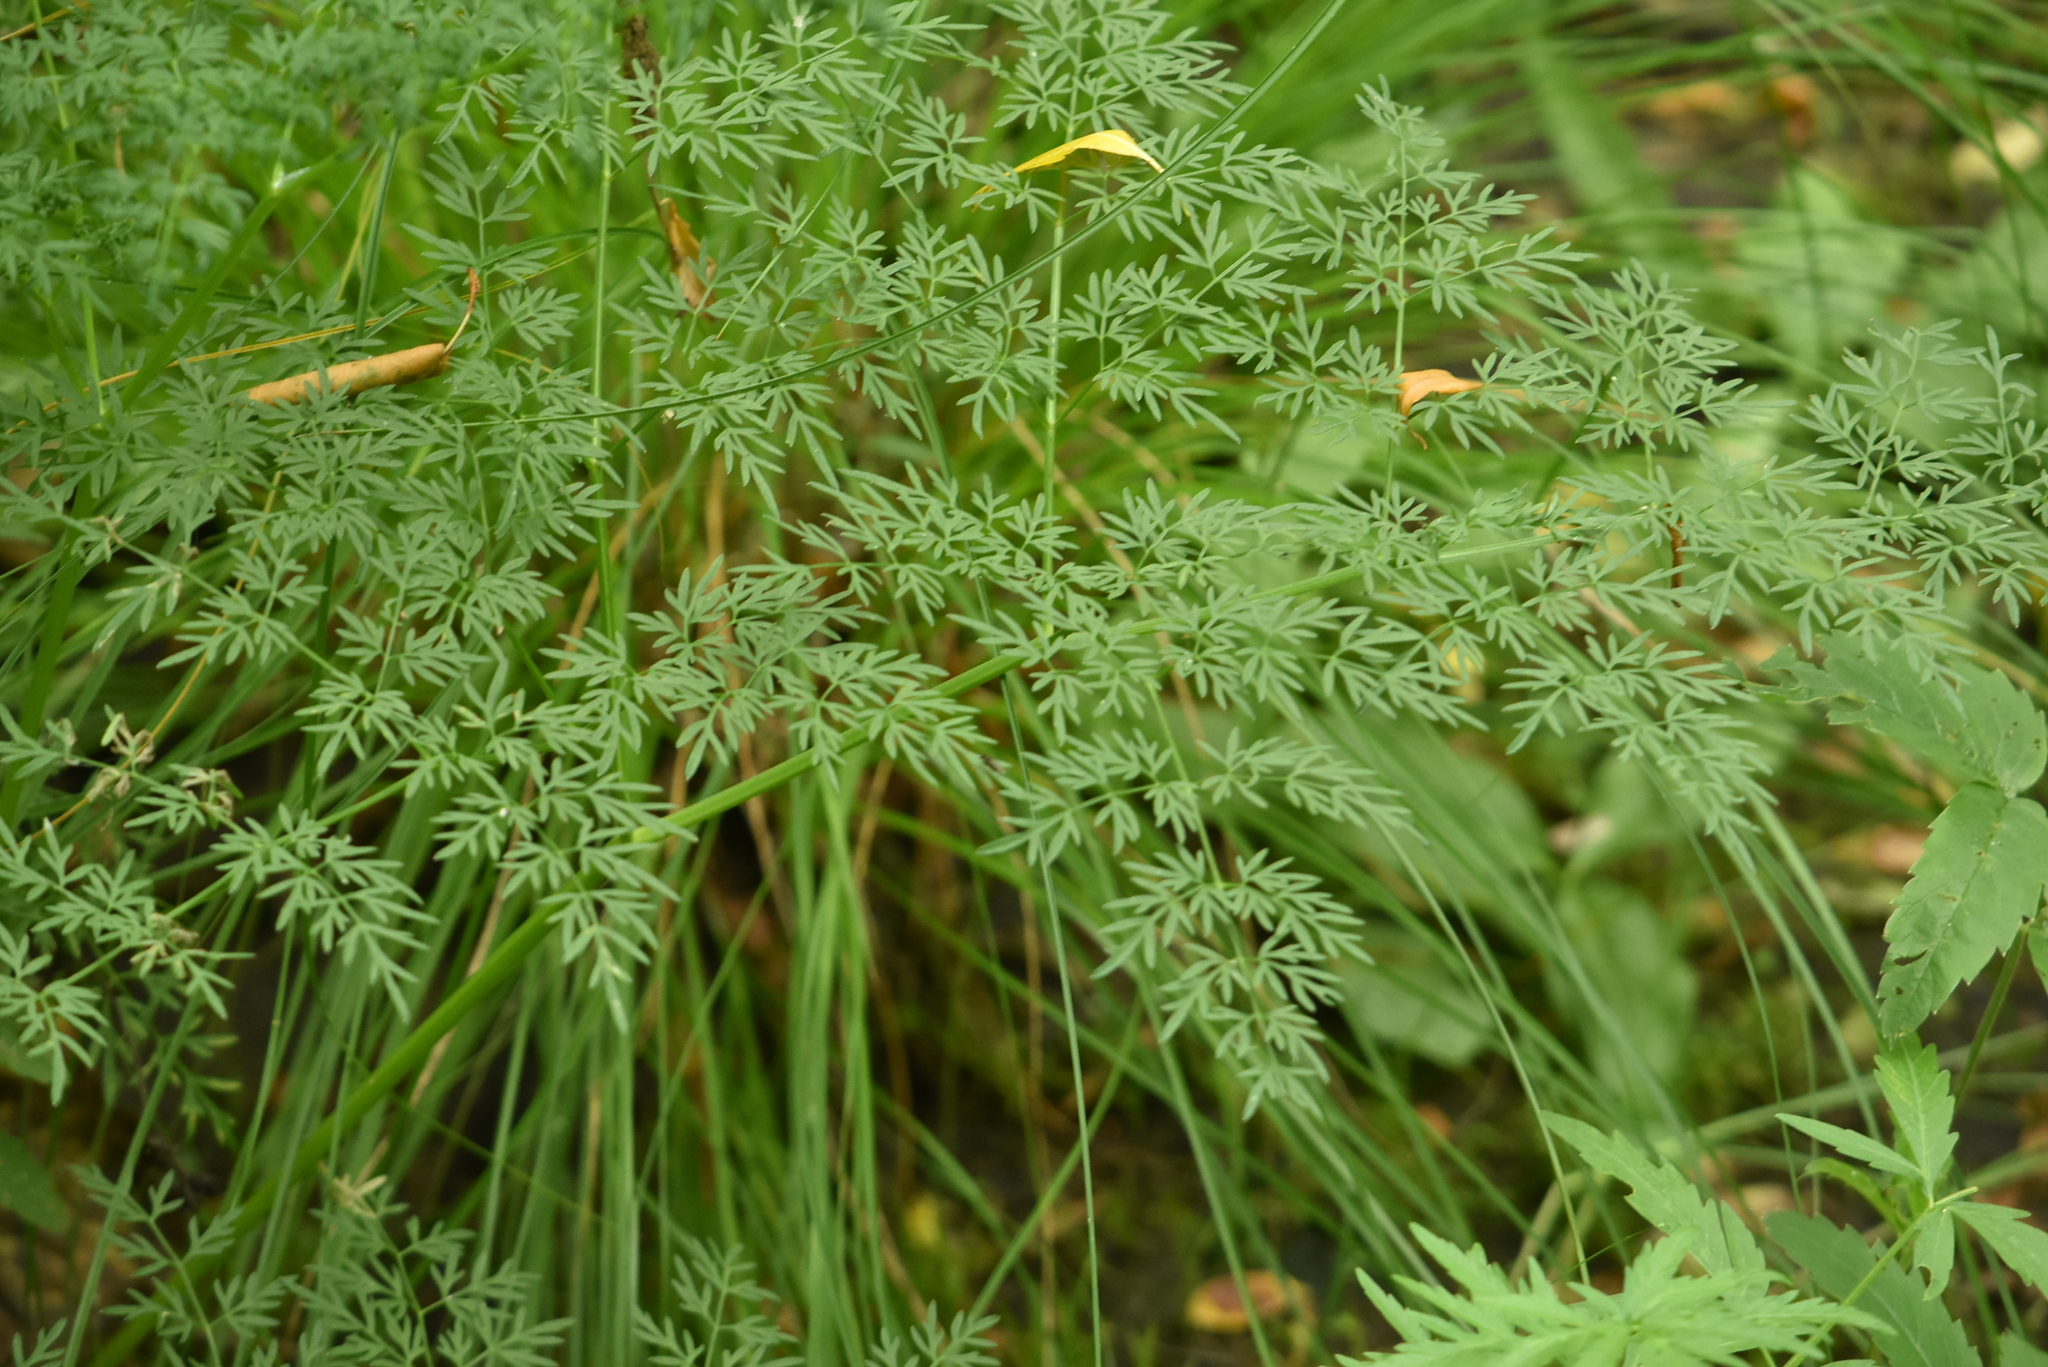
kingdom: Plantae
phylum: Tracheophyta
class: Magnoliopsida
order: Apiales
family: Apiaceae
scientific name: Apiaceae
